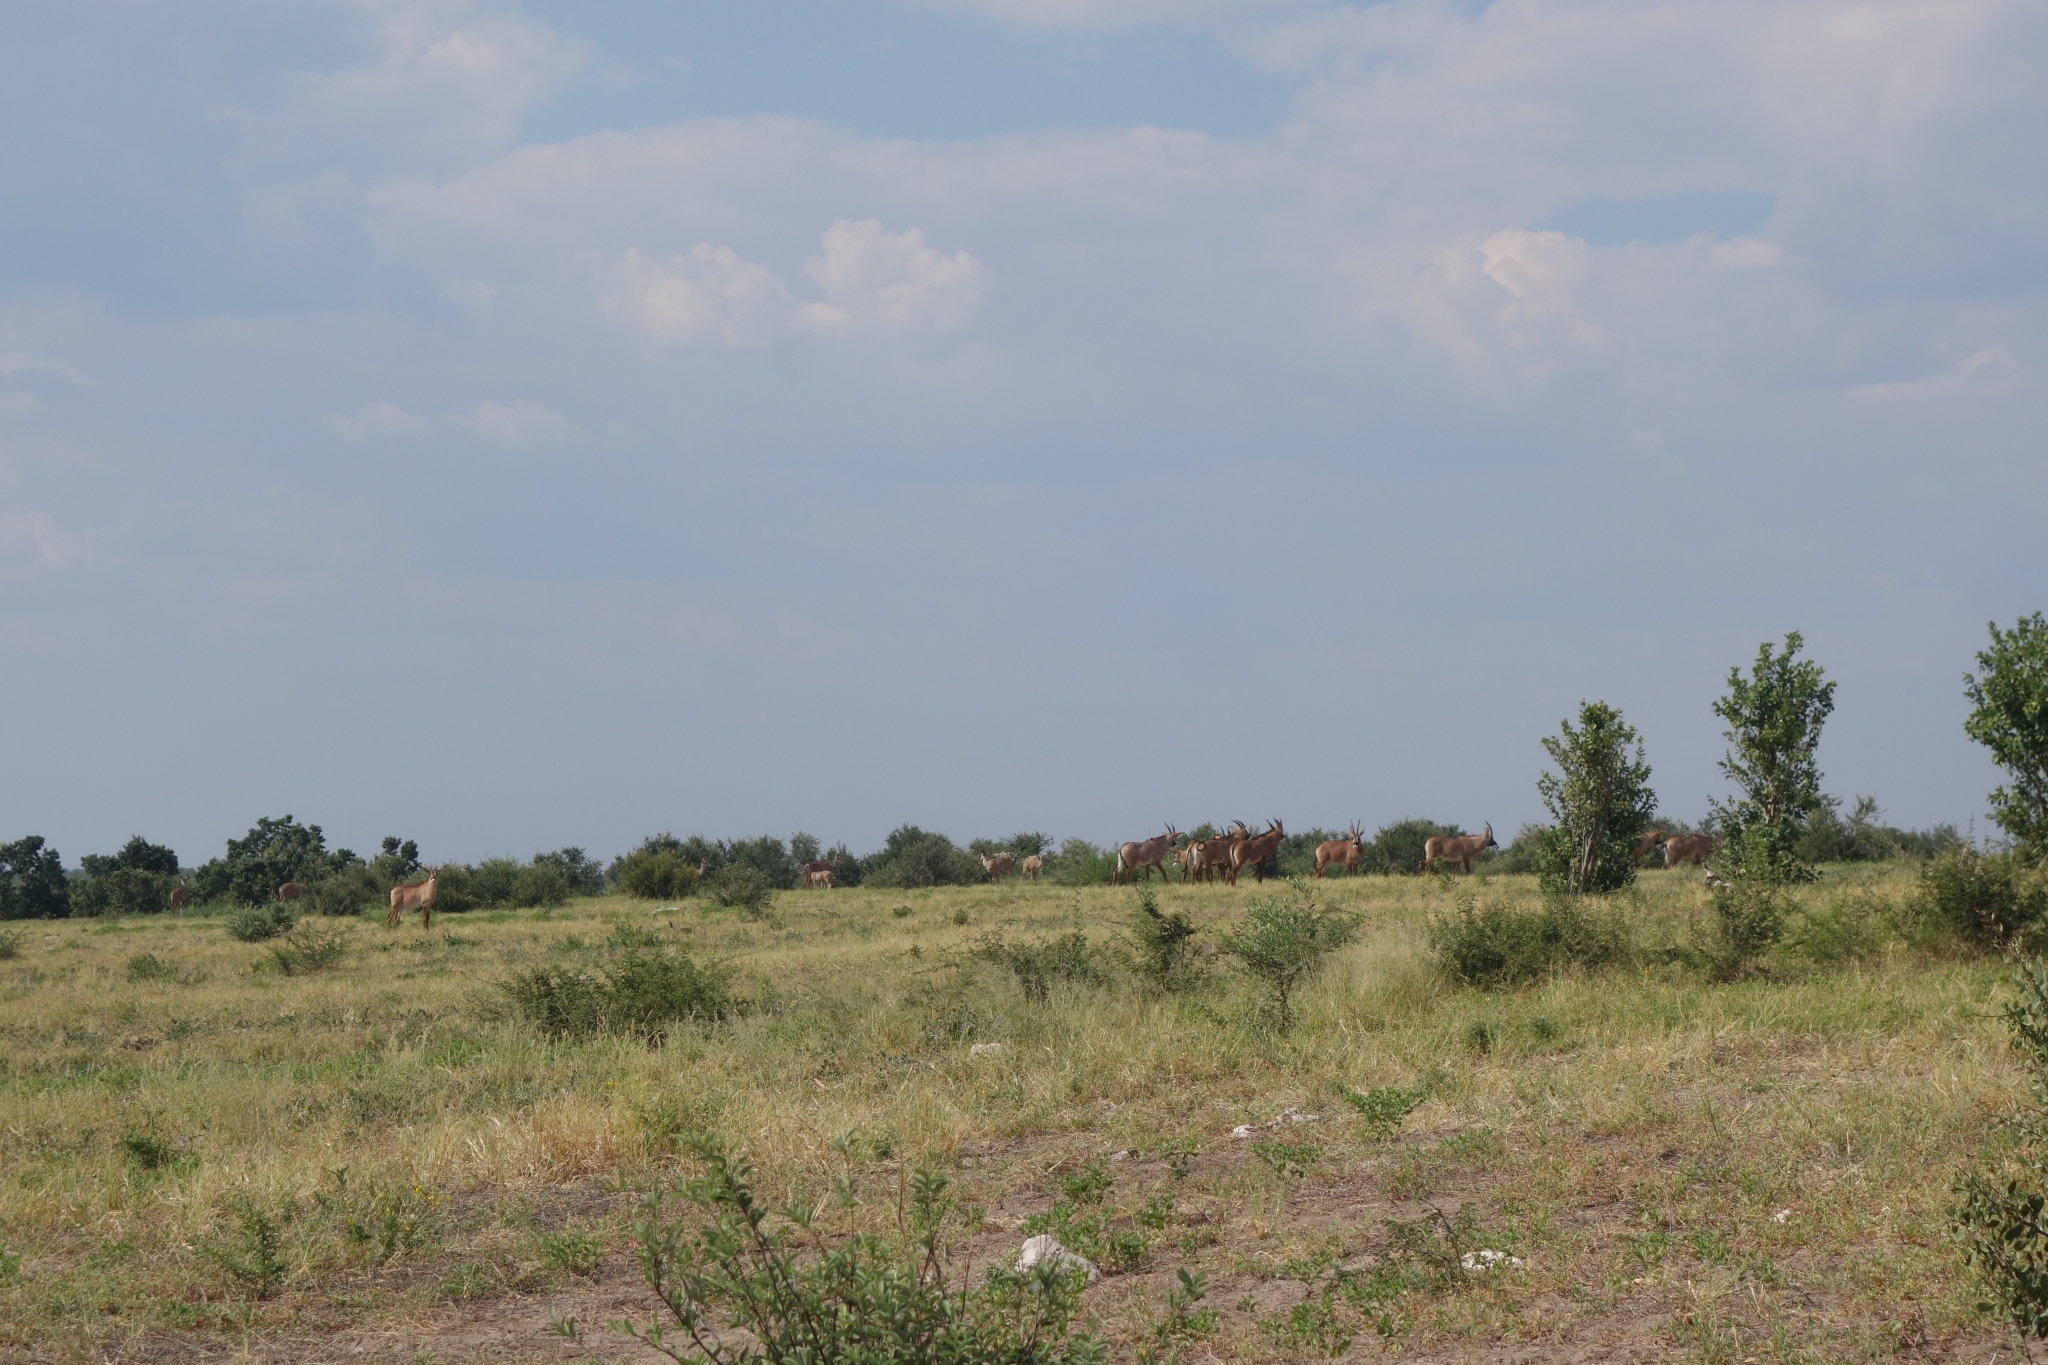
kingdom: Animalia
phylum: Chordata
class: Mammalia
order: Artiodactyla
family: Bovidae
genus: Hippotragus
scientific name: Hippotragus equinus
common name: Roan antelope
